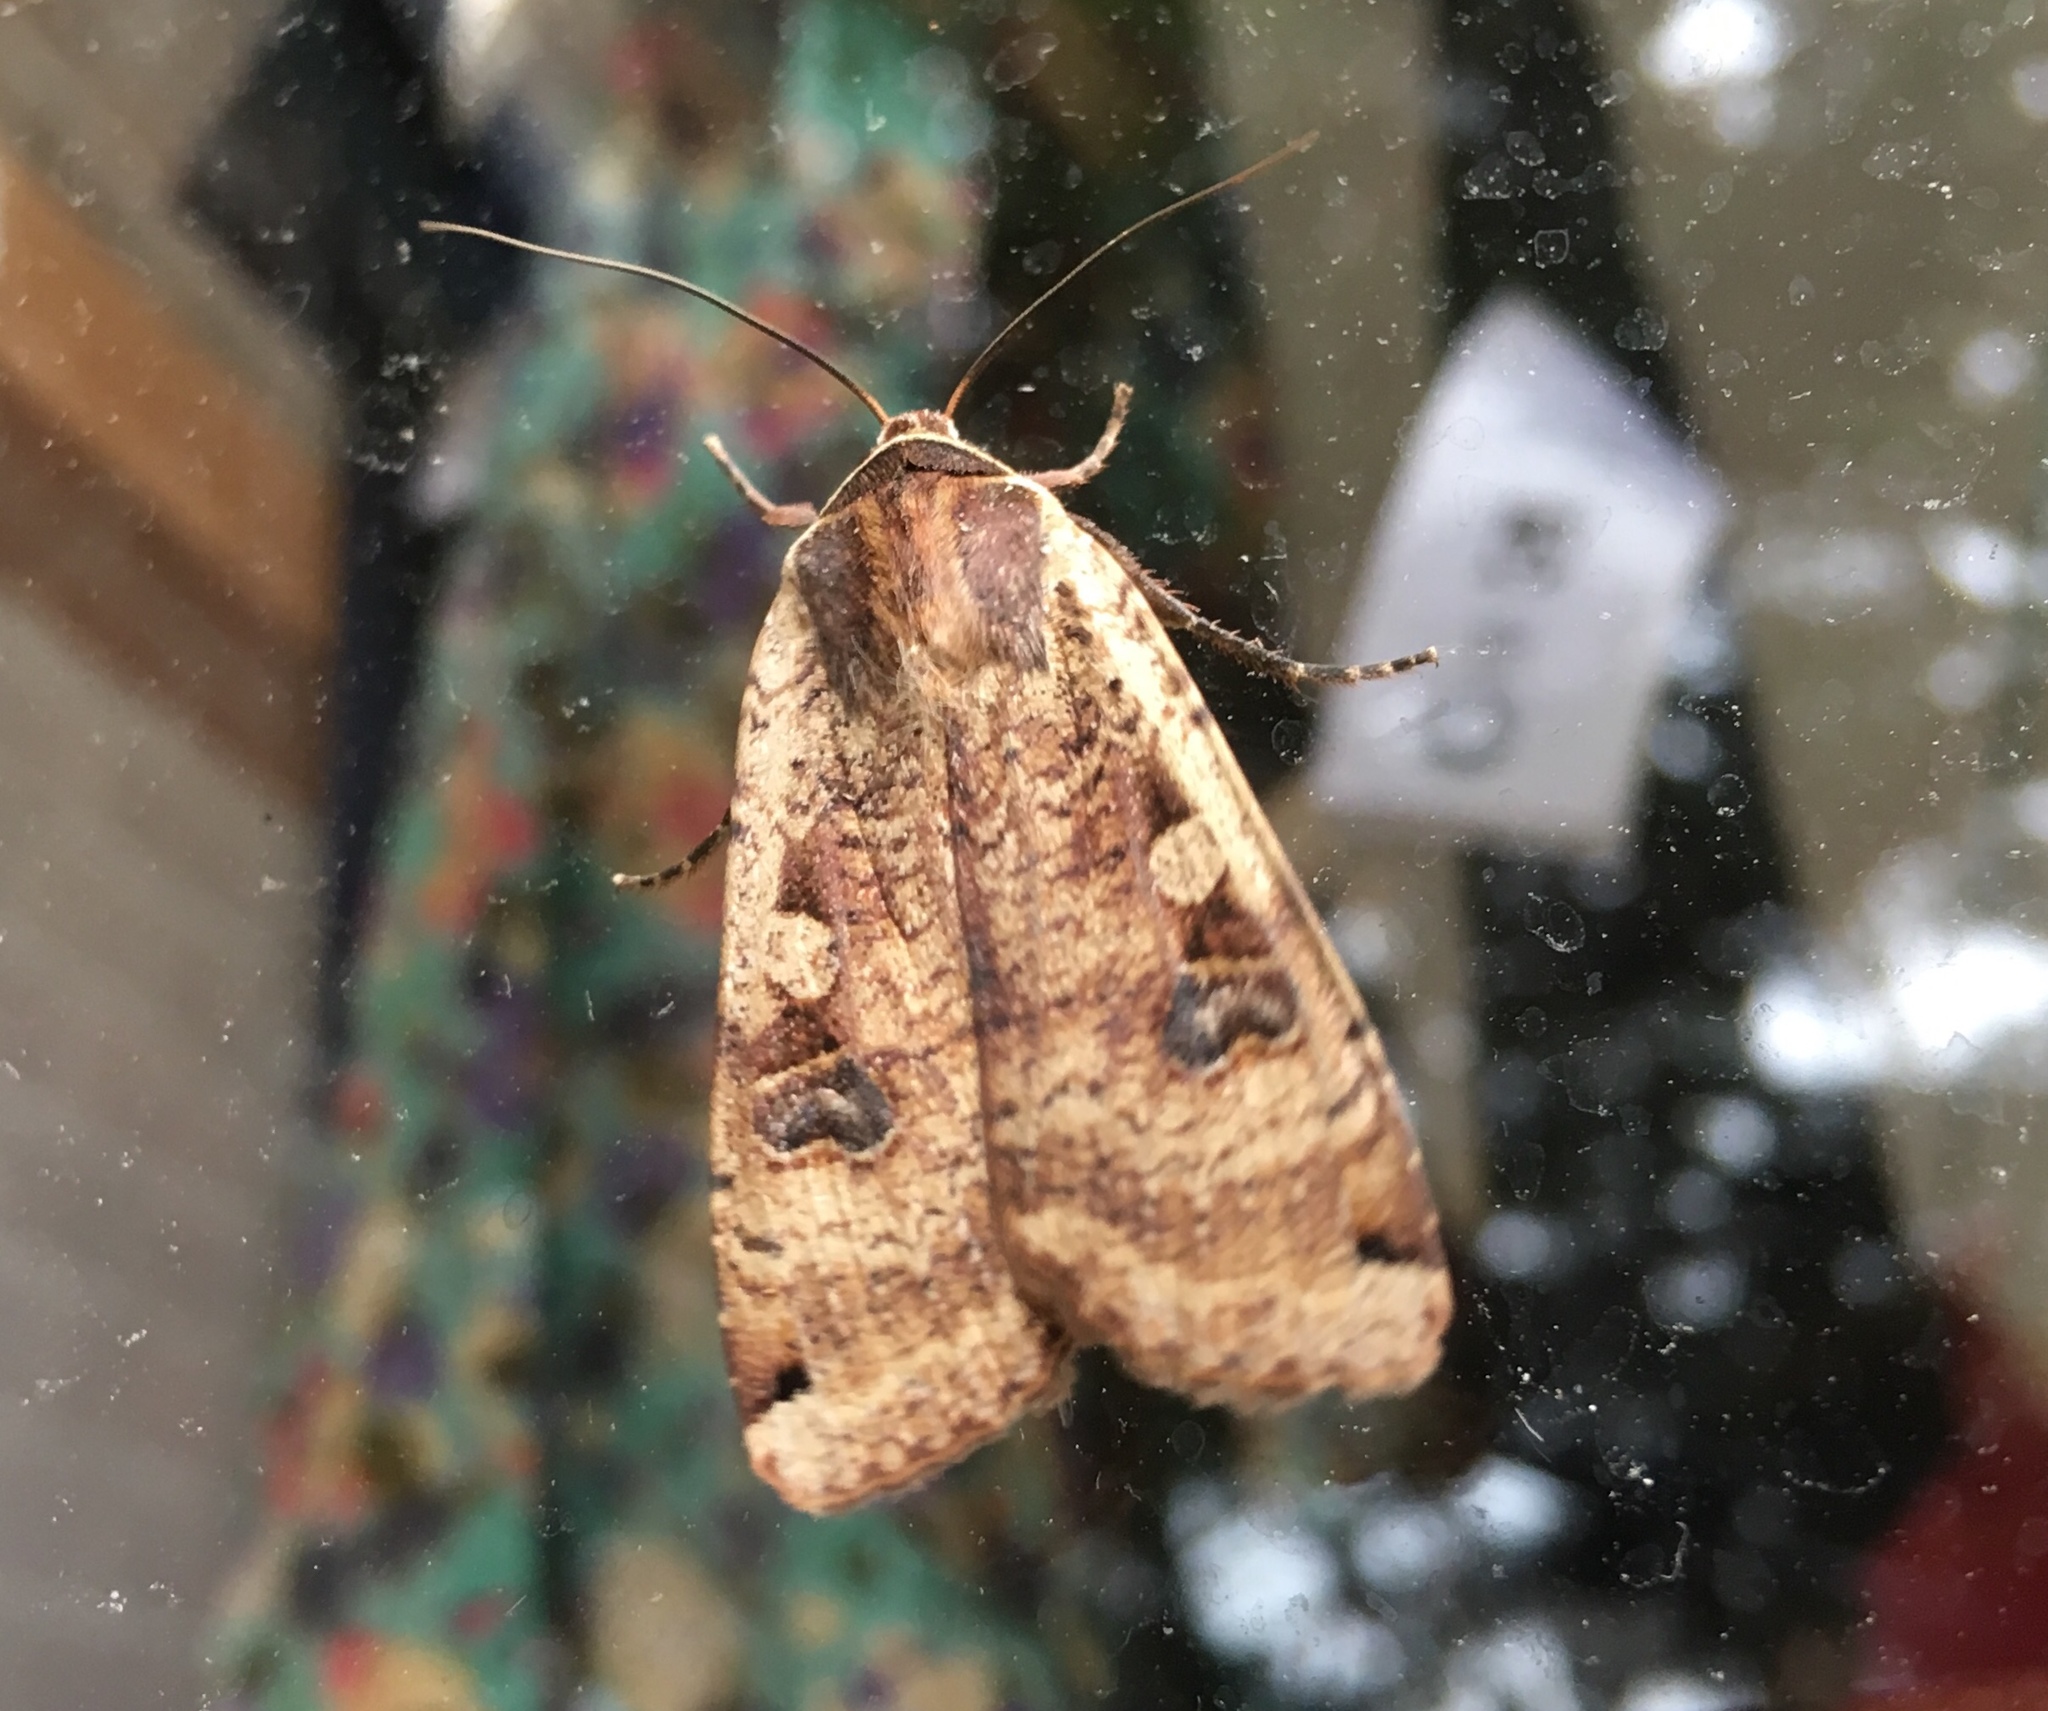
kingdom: Animalia
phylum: Arthropoda
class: Insecta
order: Lepidoptera
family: Noctuidae
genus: Noctua
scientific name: Noctua pronuba
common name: Large yellow underwing
